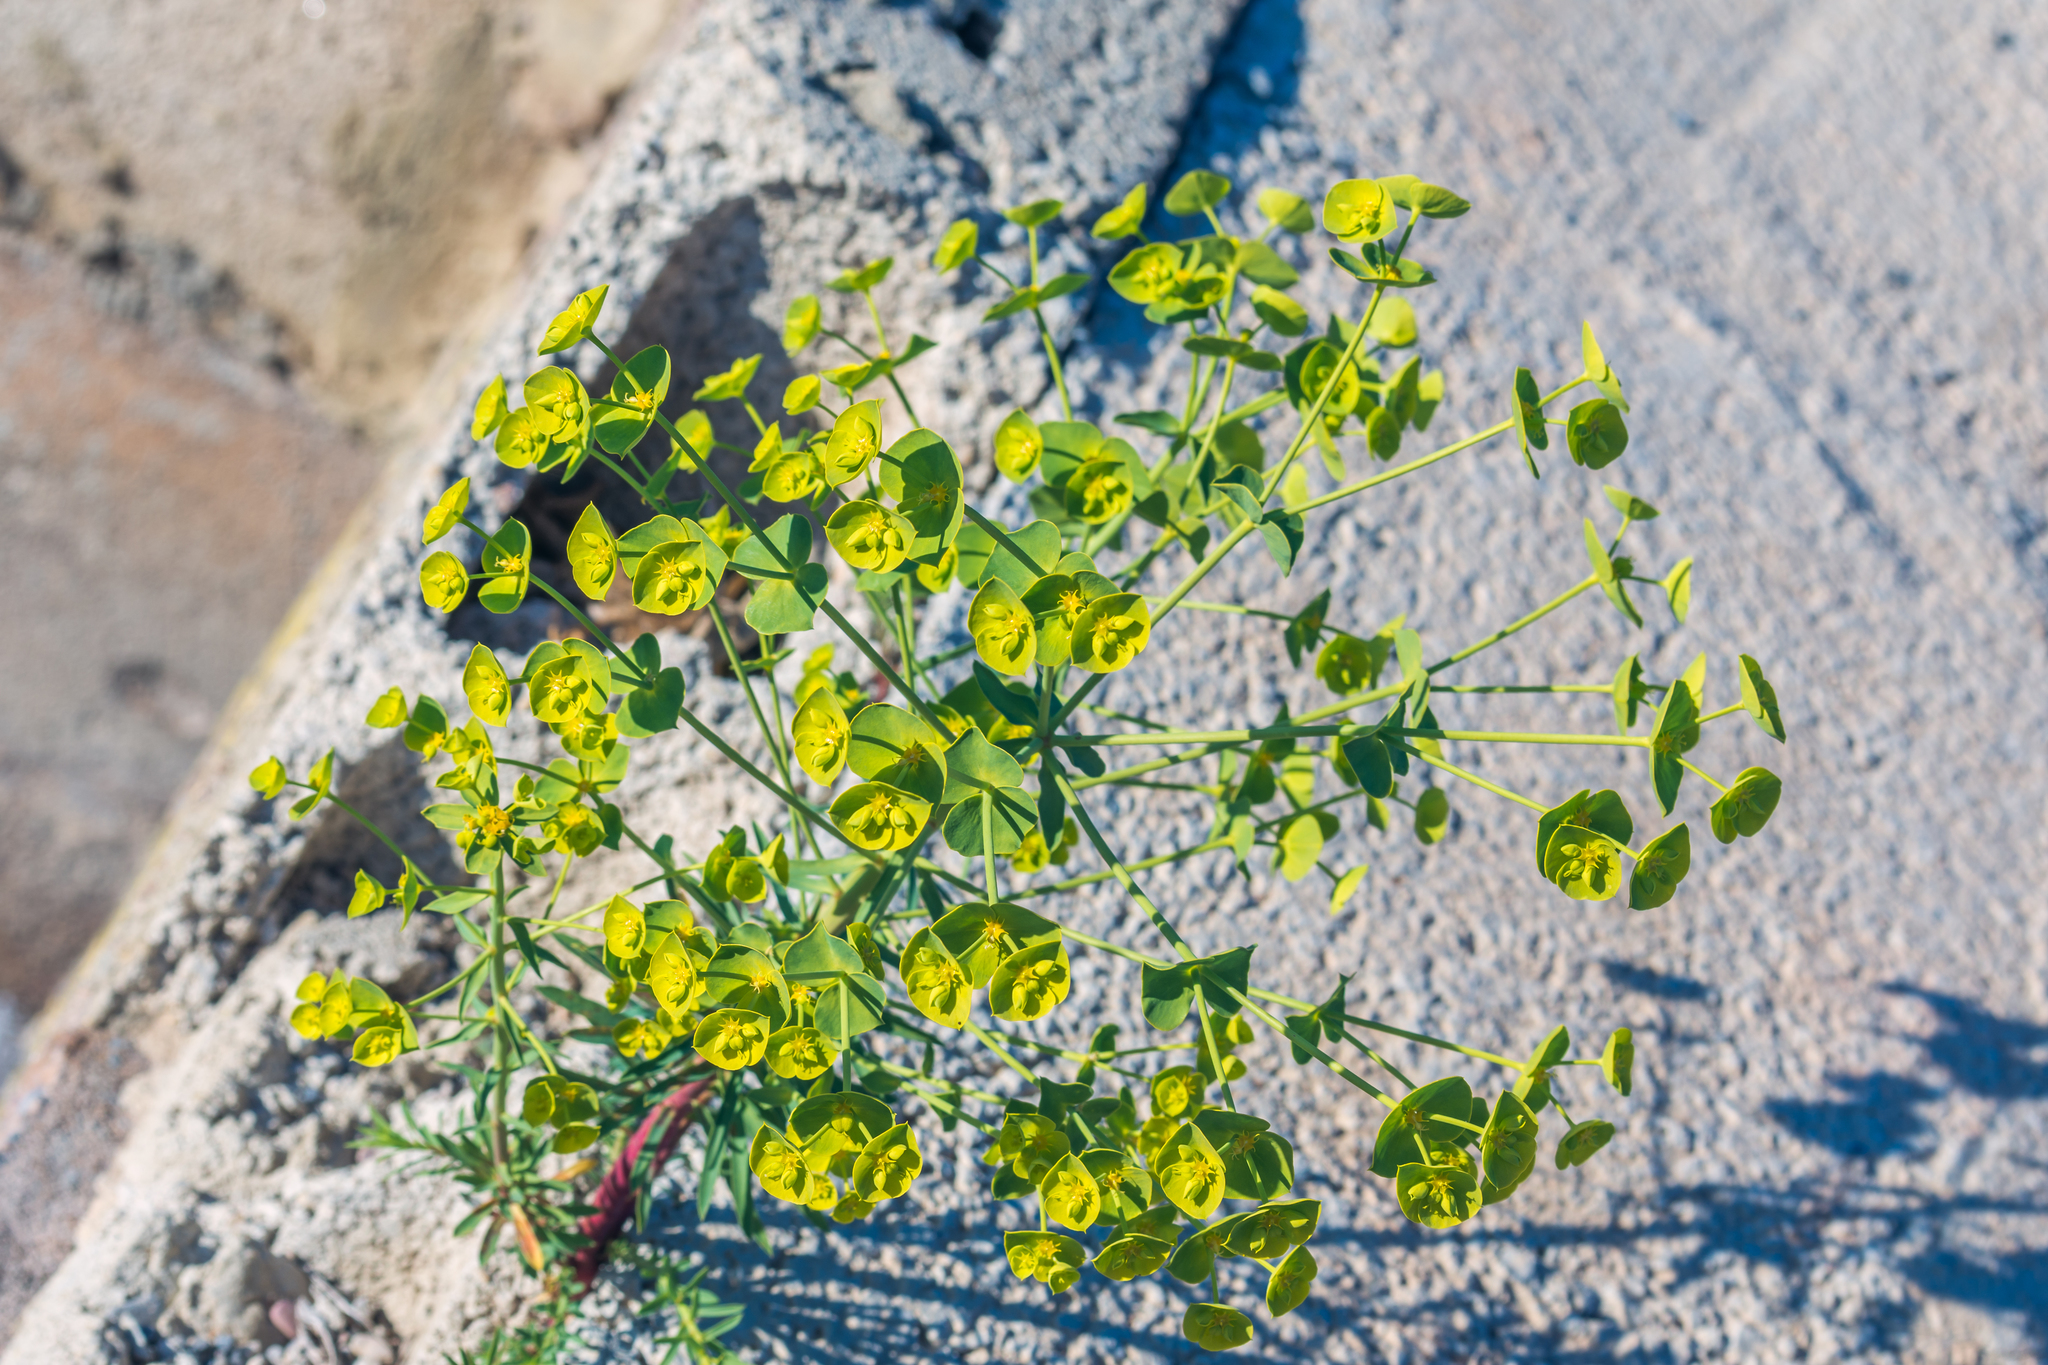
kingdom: Plantae
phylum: Tracheophyta
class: Magnoliopsida
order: Malpighiales
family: Euphorbiaceae
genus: Euphorbia
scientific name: Euphorbia segetalis
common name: Corn spurge
